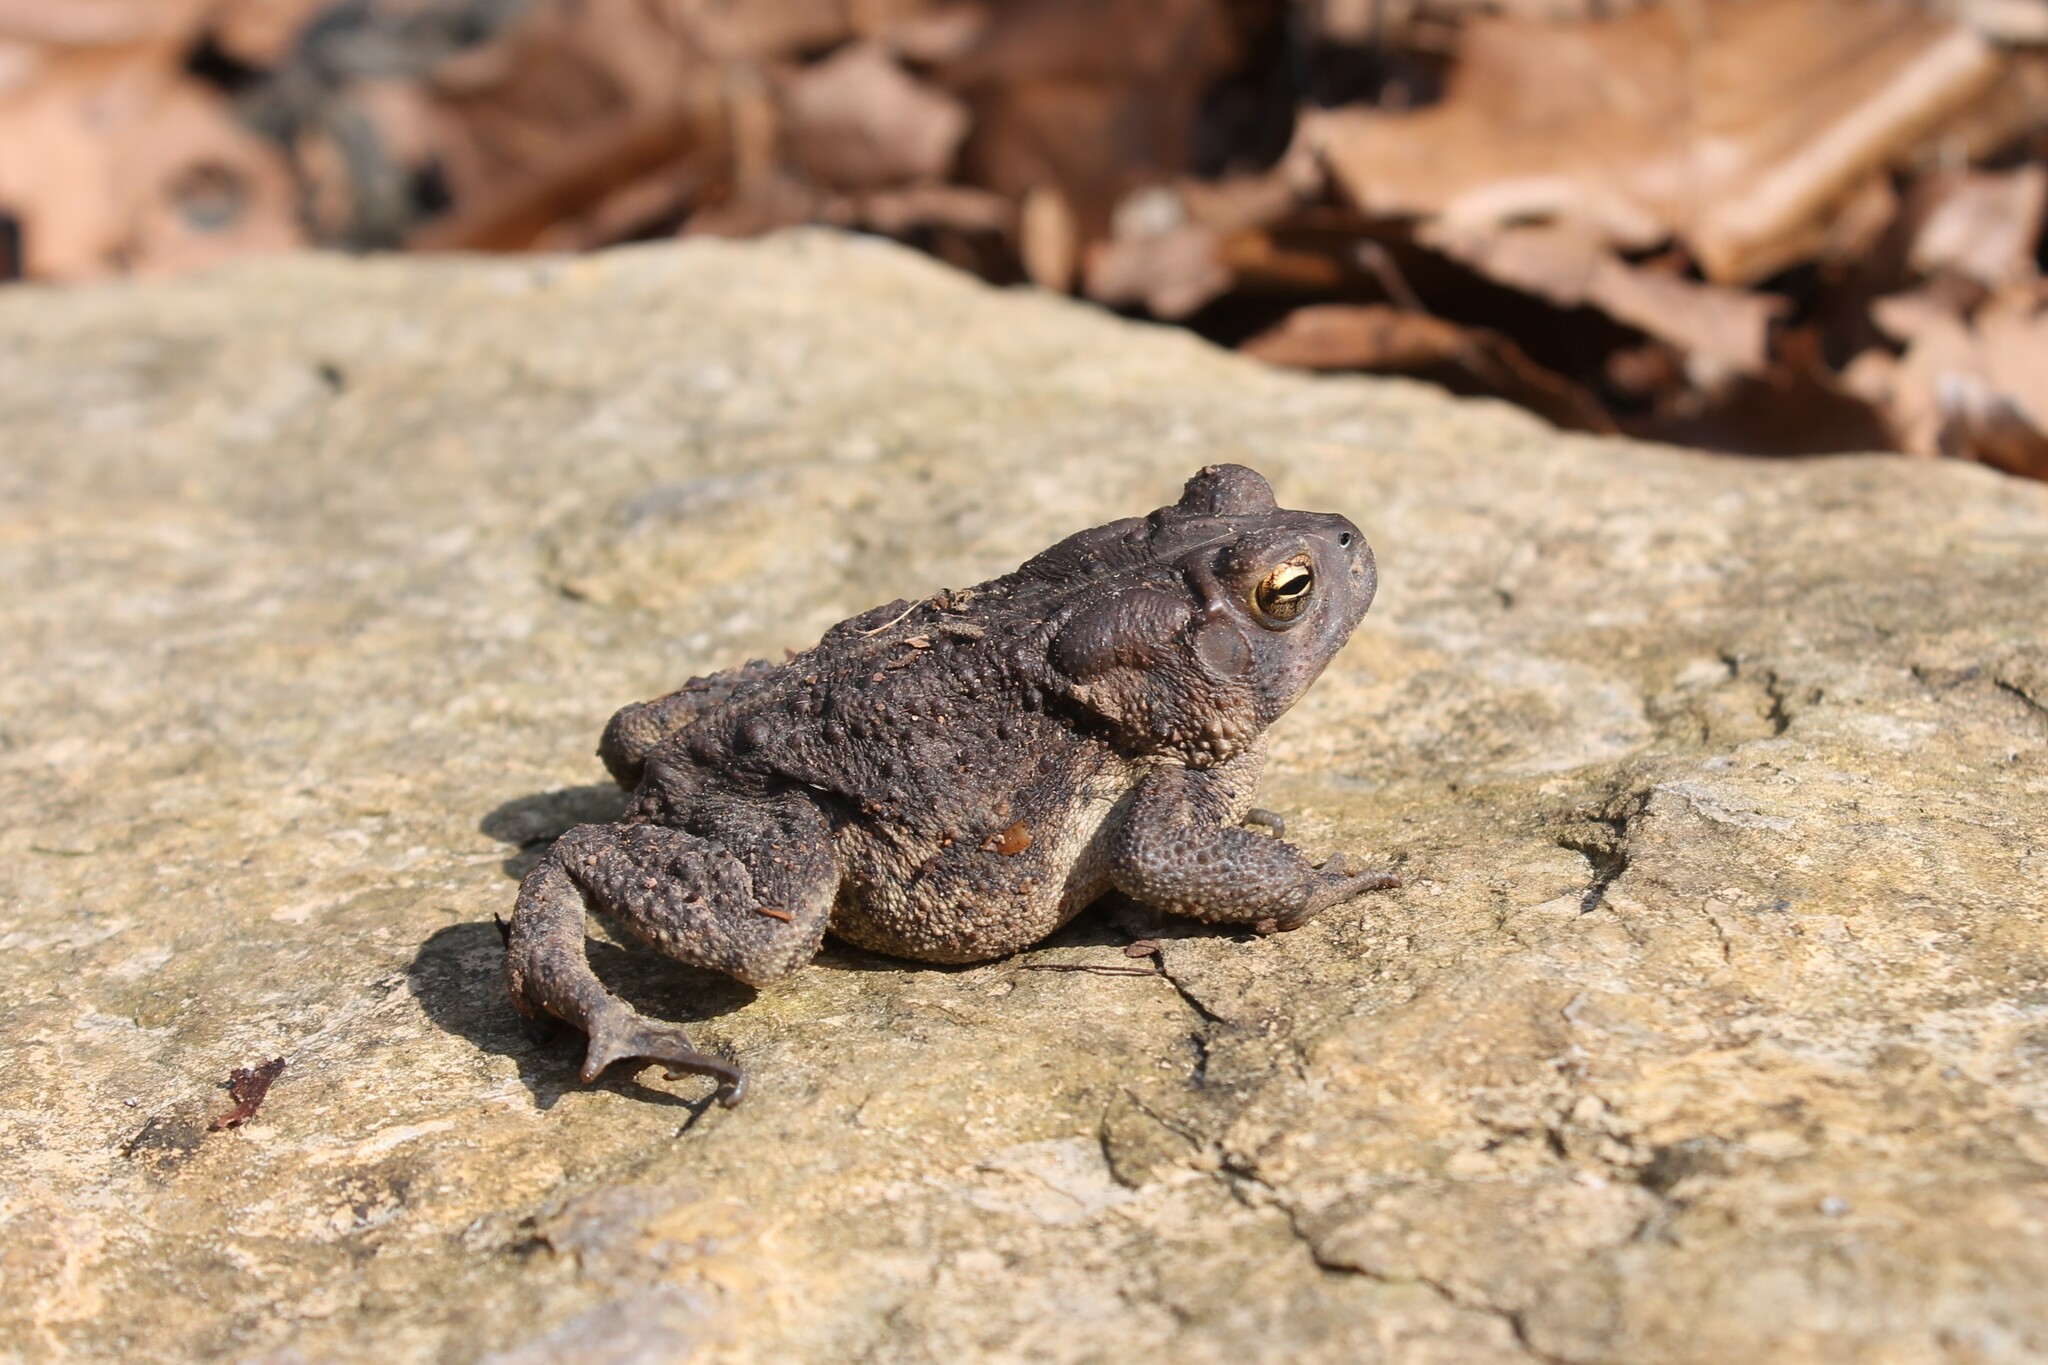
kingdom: Animalia
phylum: Chordata
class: Amphibia
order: Anura
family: Bufonidae
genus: Anaxyrus
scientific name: Anaxyrus americanus
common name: American toad
